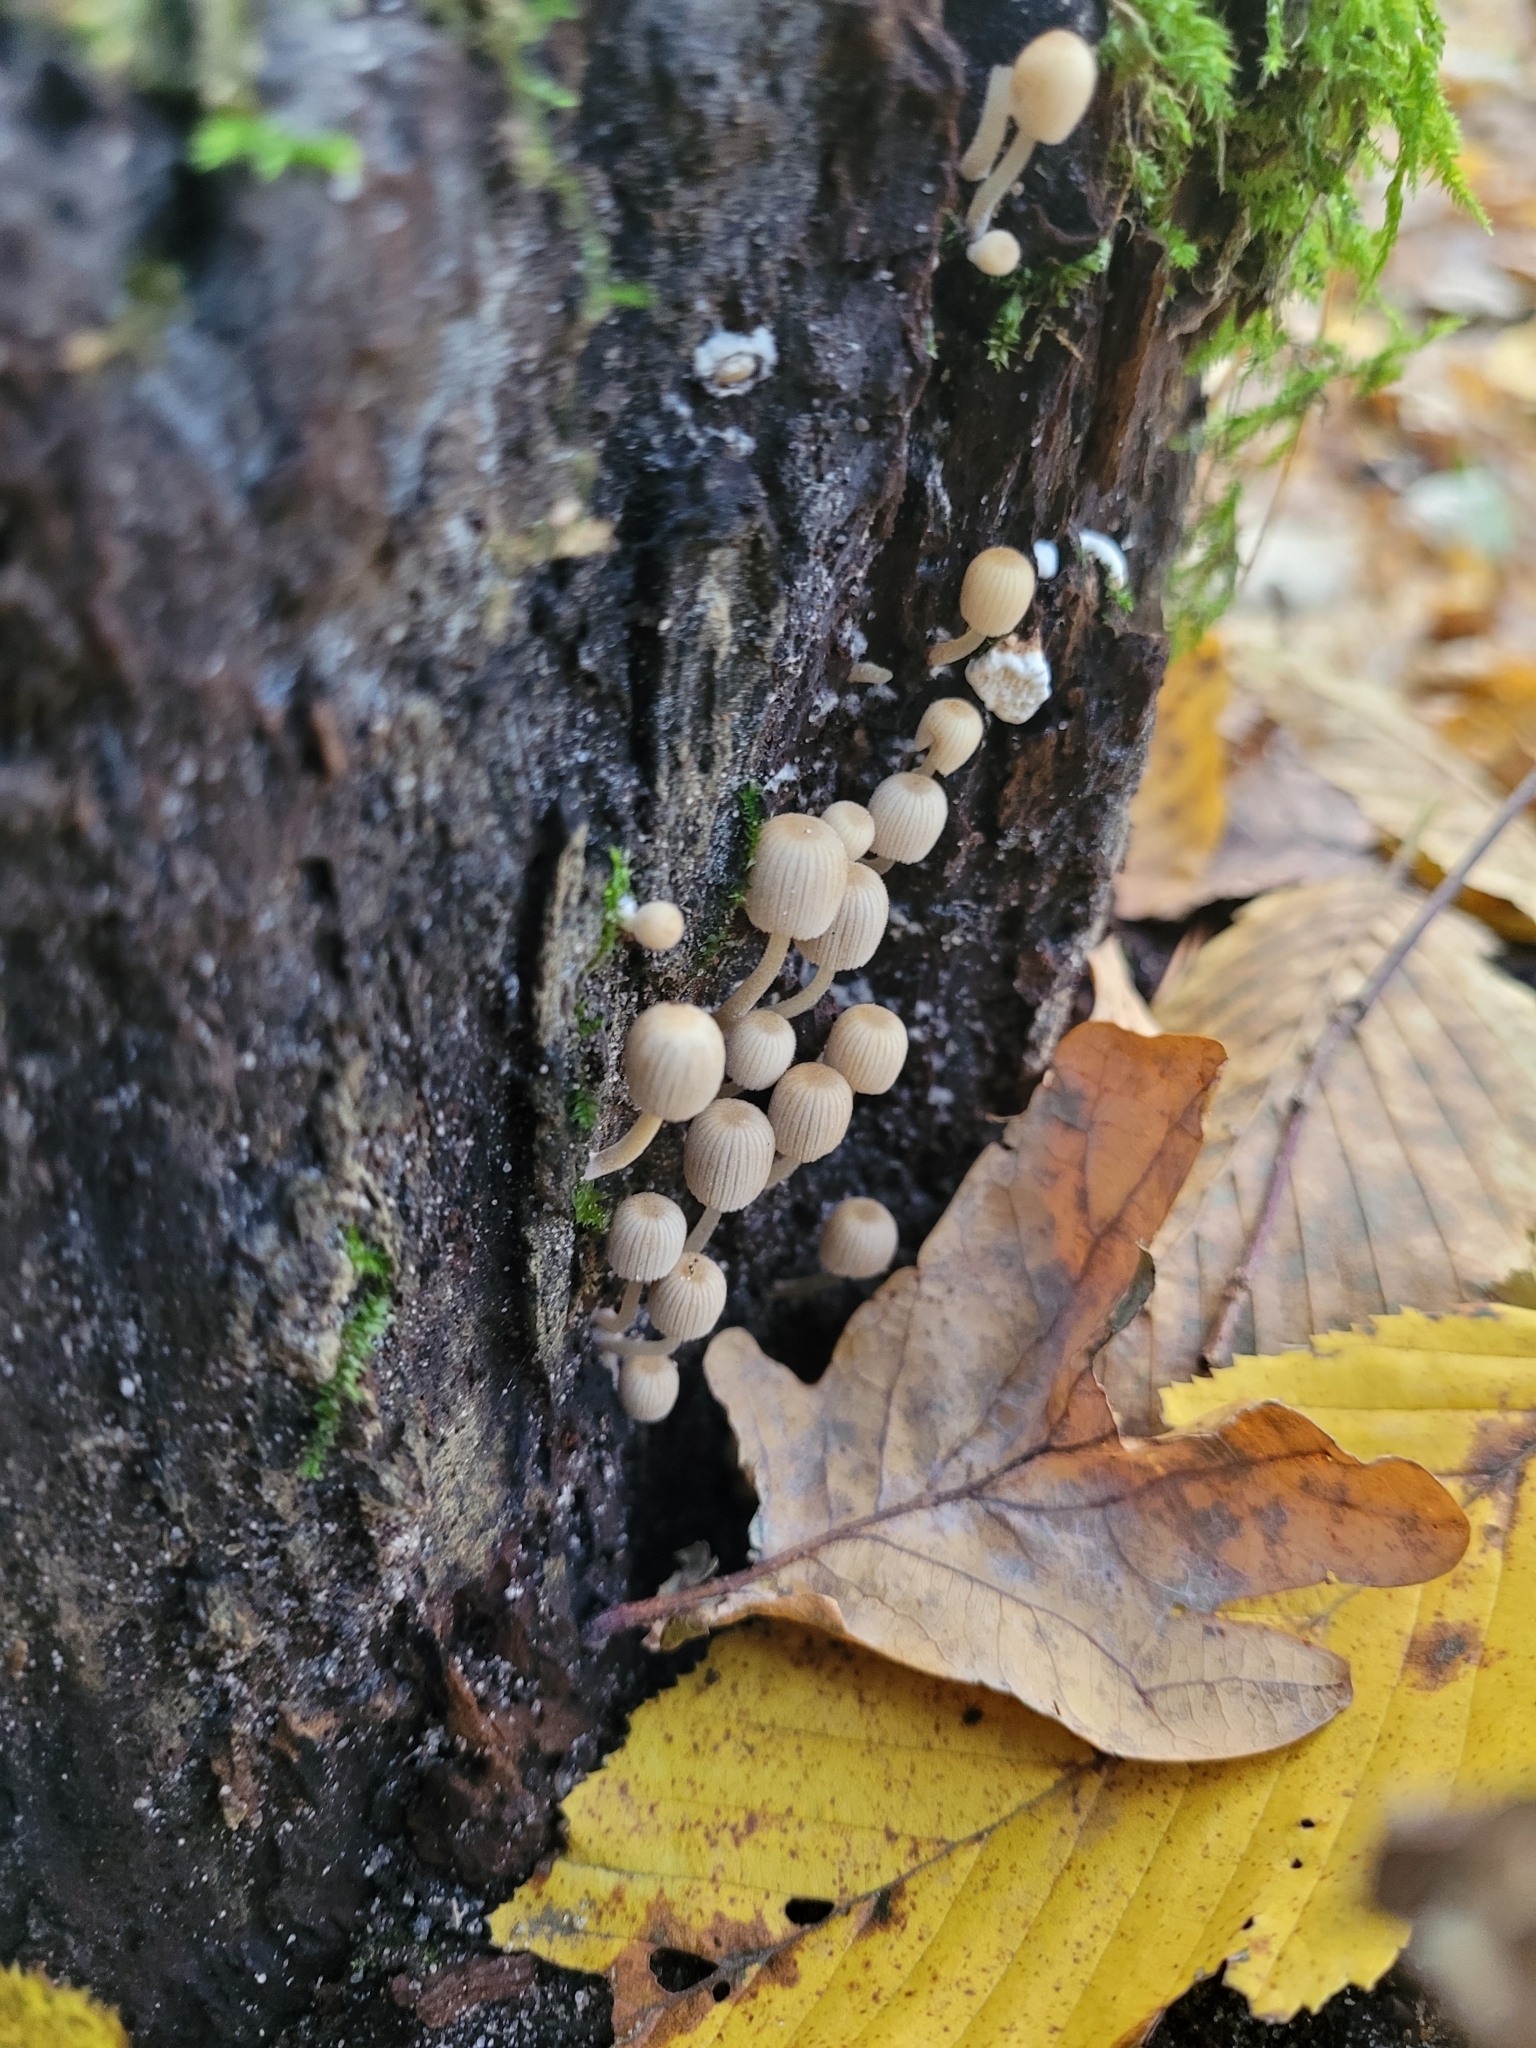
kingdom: Fungi
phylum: Basidiomycota
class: Agaricomycetes
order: Agaricales
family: Psathyrellaceae
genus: Coprinellus
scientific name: Coprinellus disseminatus
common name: Fairies' bonnets
